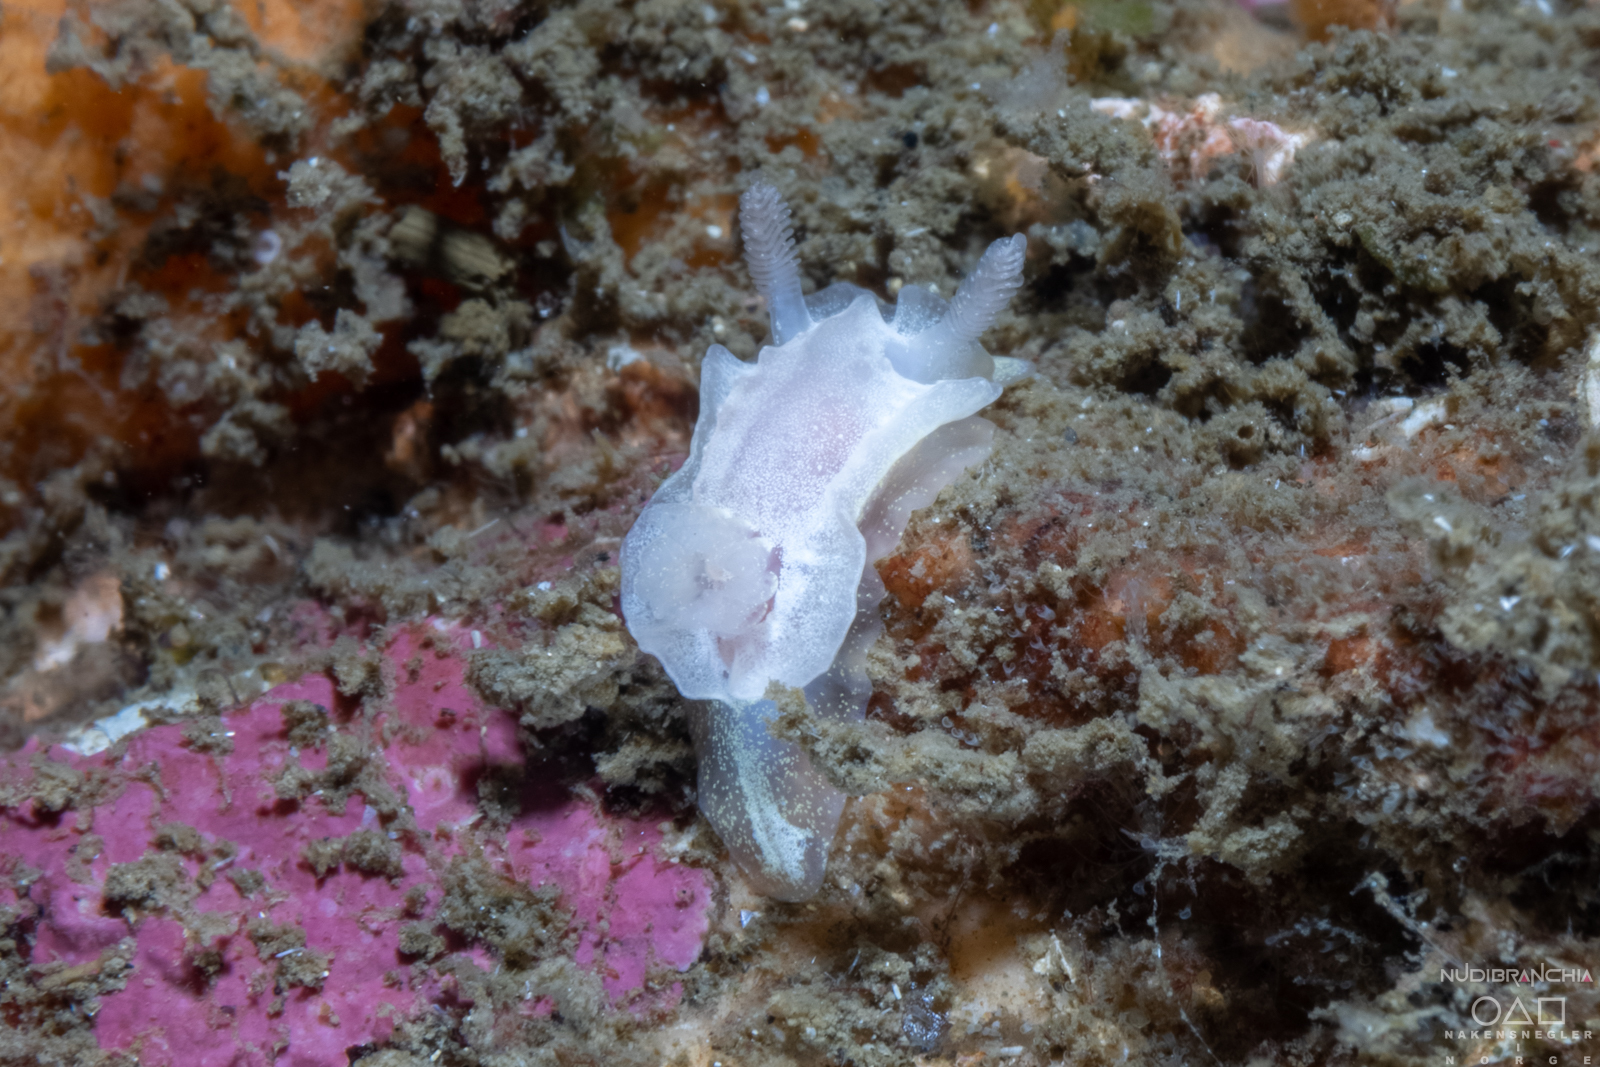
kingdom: Animalia
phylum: Mollusca
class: Gastropoda
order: Nudibranchia
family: Goniodorididae
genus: Okenia
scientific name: Okenia
